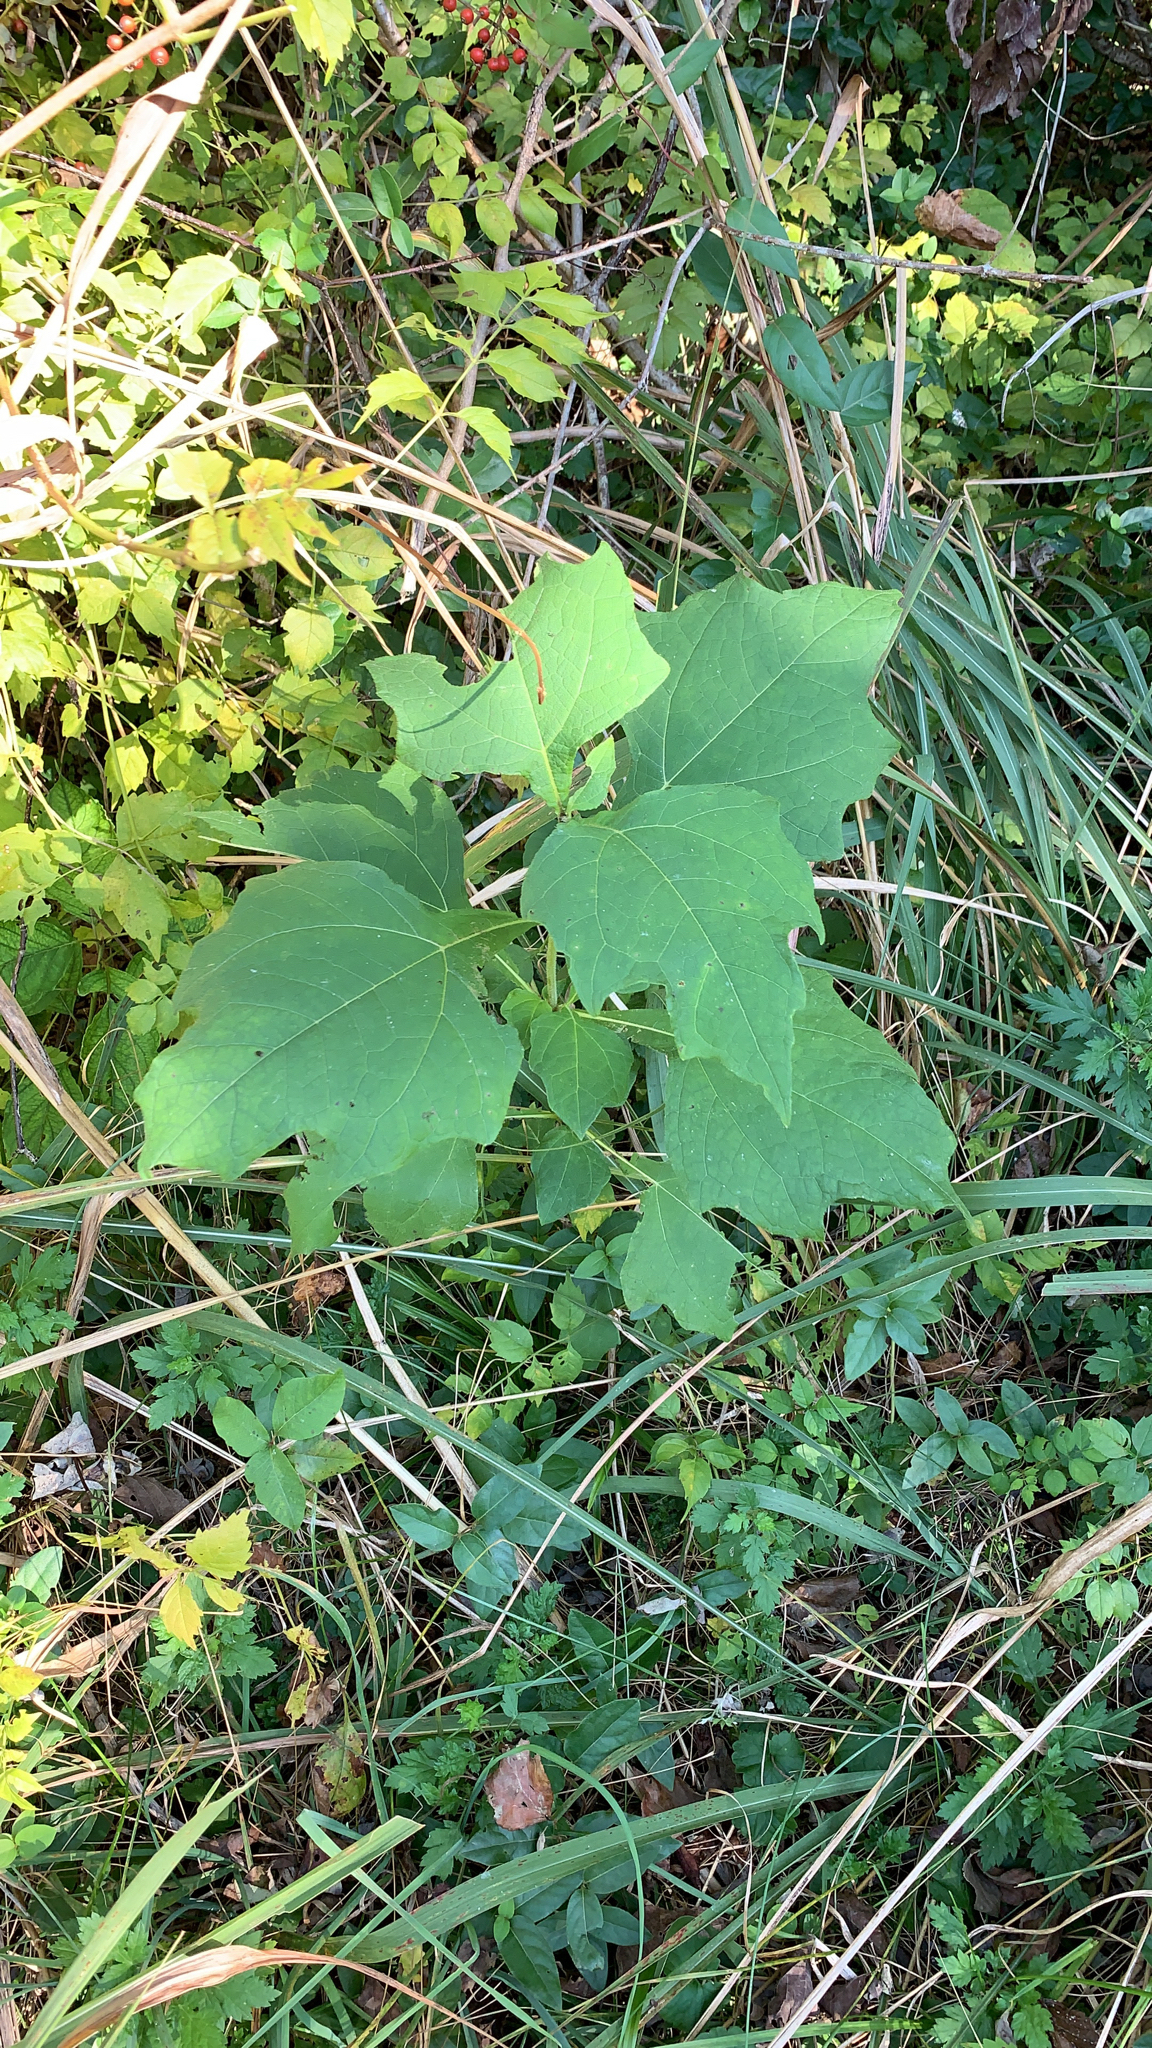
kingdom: Plantae
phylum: Tracheophyta
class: Magnoliopsida
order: Asterales
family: Asteraceae
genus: Smallanthus
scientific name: Smallanthus uvedalia
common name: Bear's-foot
